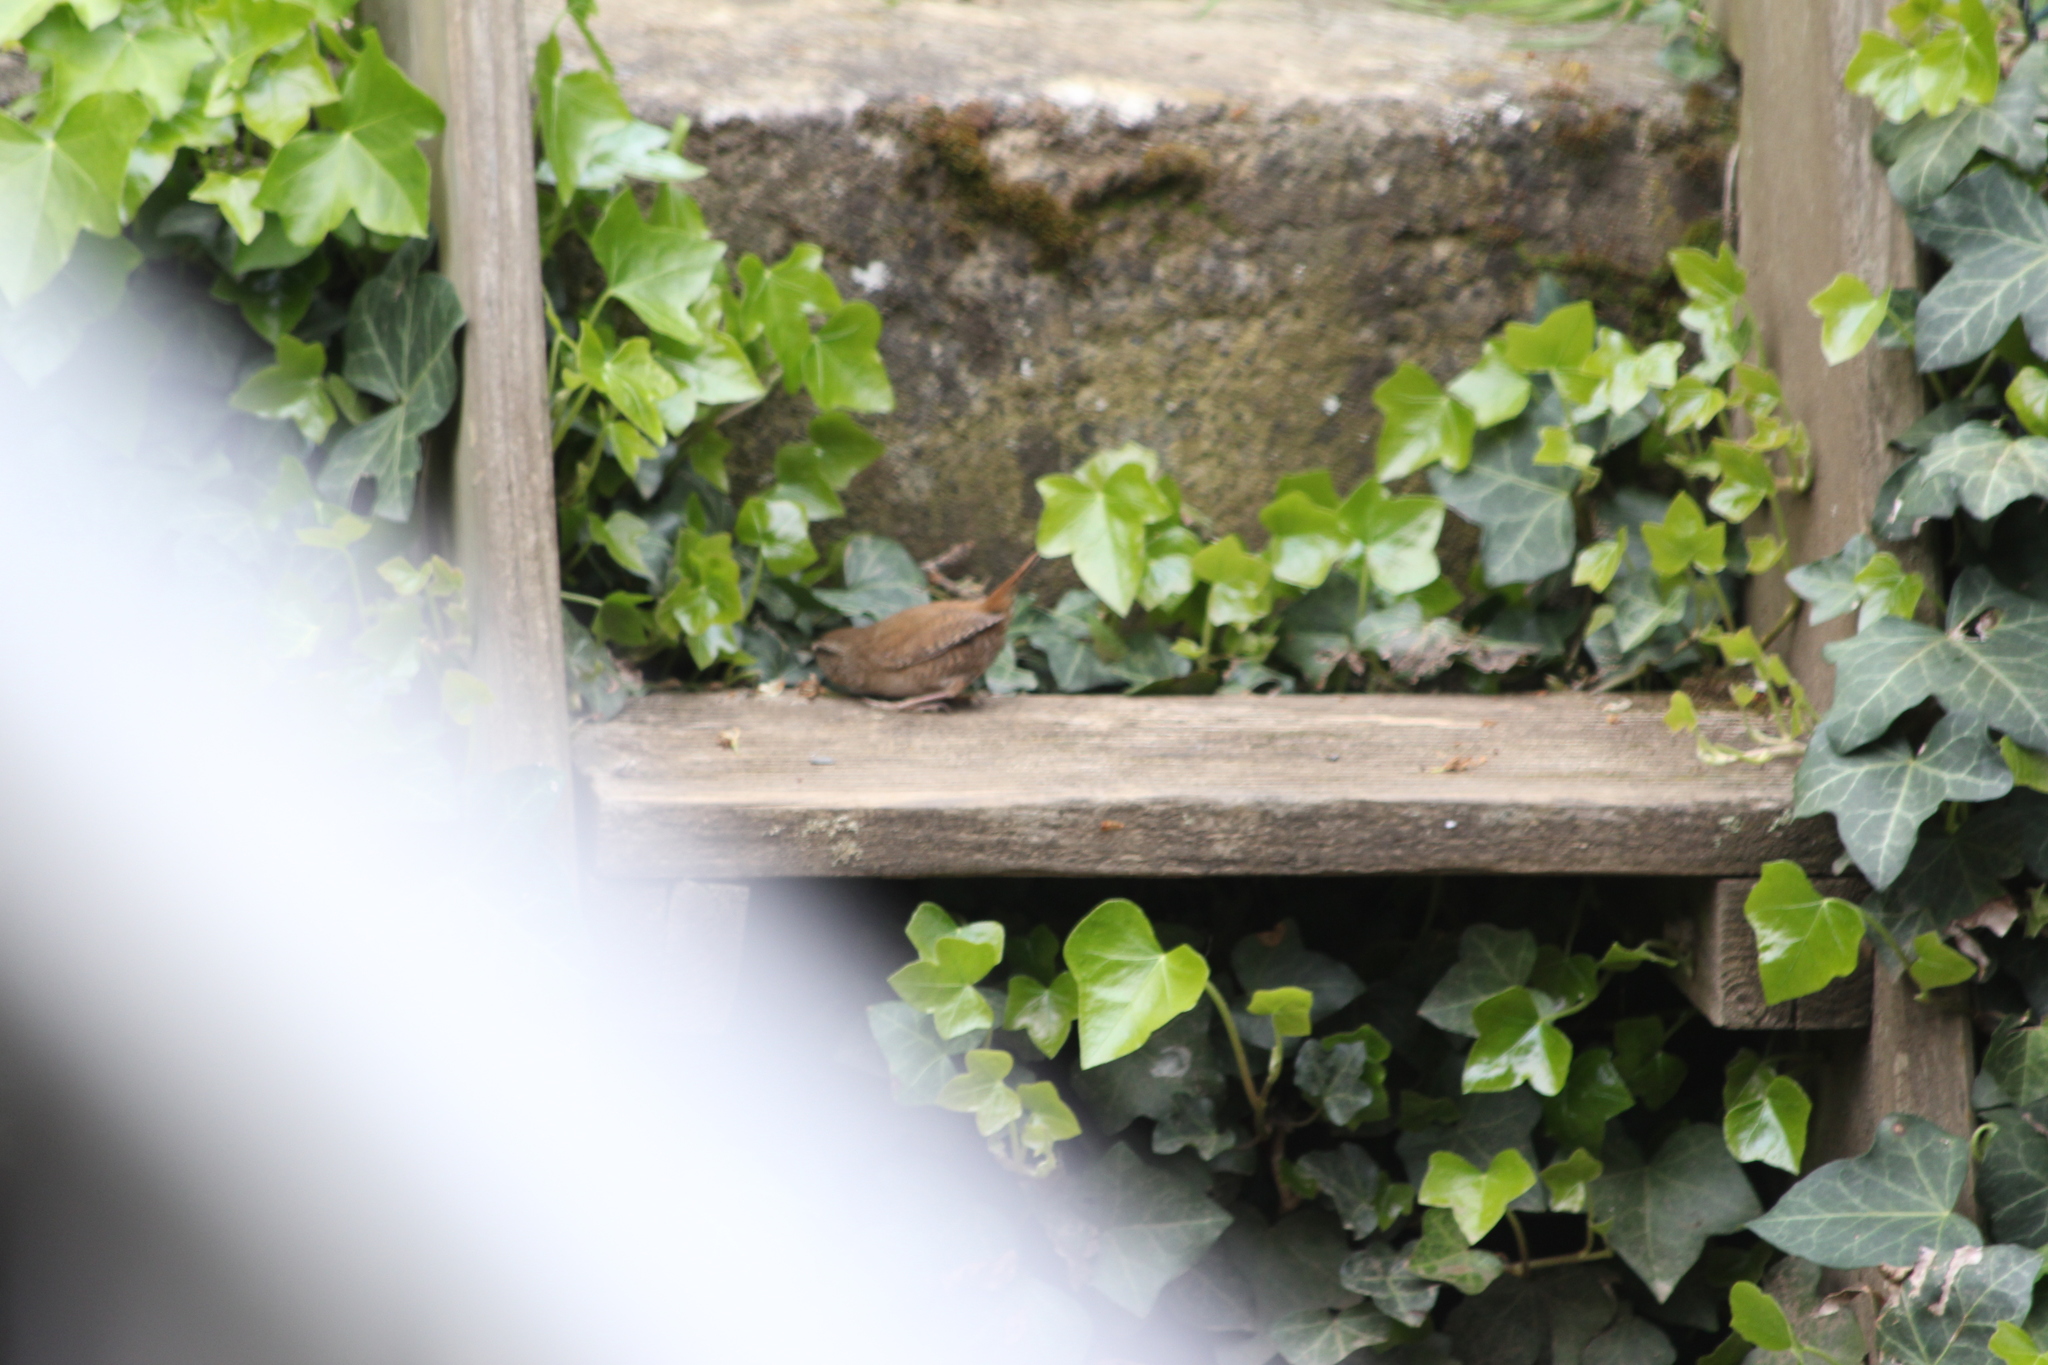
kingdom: Animalia
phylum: Chordata
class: Aves
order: Passeriformes
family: Troglodytidae
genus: Troglodytes
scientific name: Troglodytes troglodytes
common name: Eurasian wren
